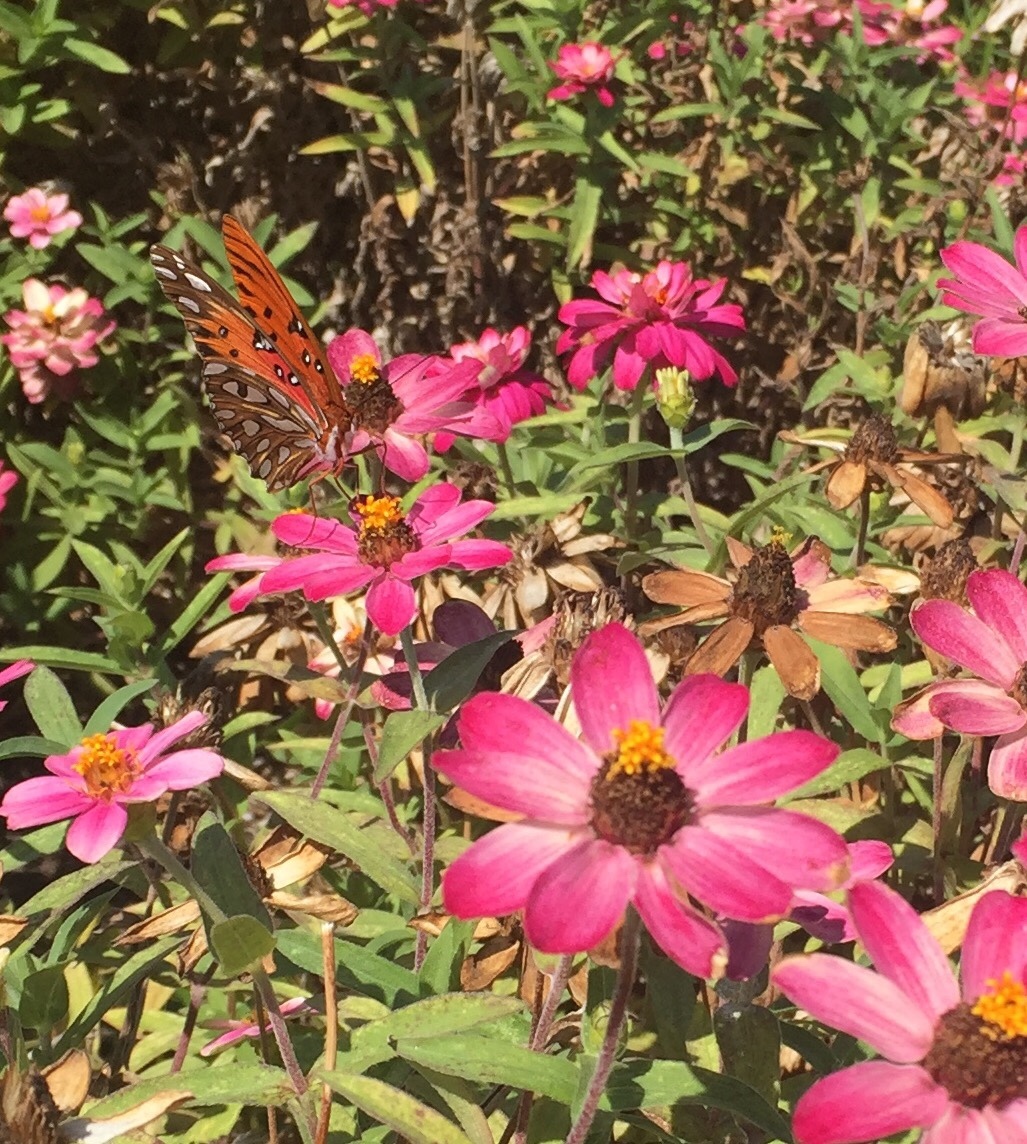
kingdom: Animalia
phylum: Arthropoda
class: Insecta
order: Lepidoptera
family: Nymphalidae
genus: Dione
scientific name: Dione vanillae
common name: Gulf fritillary
